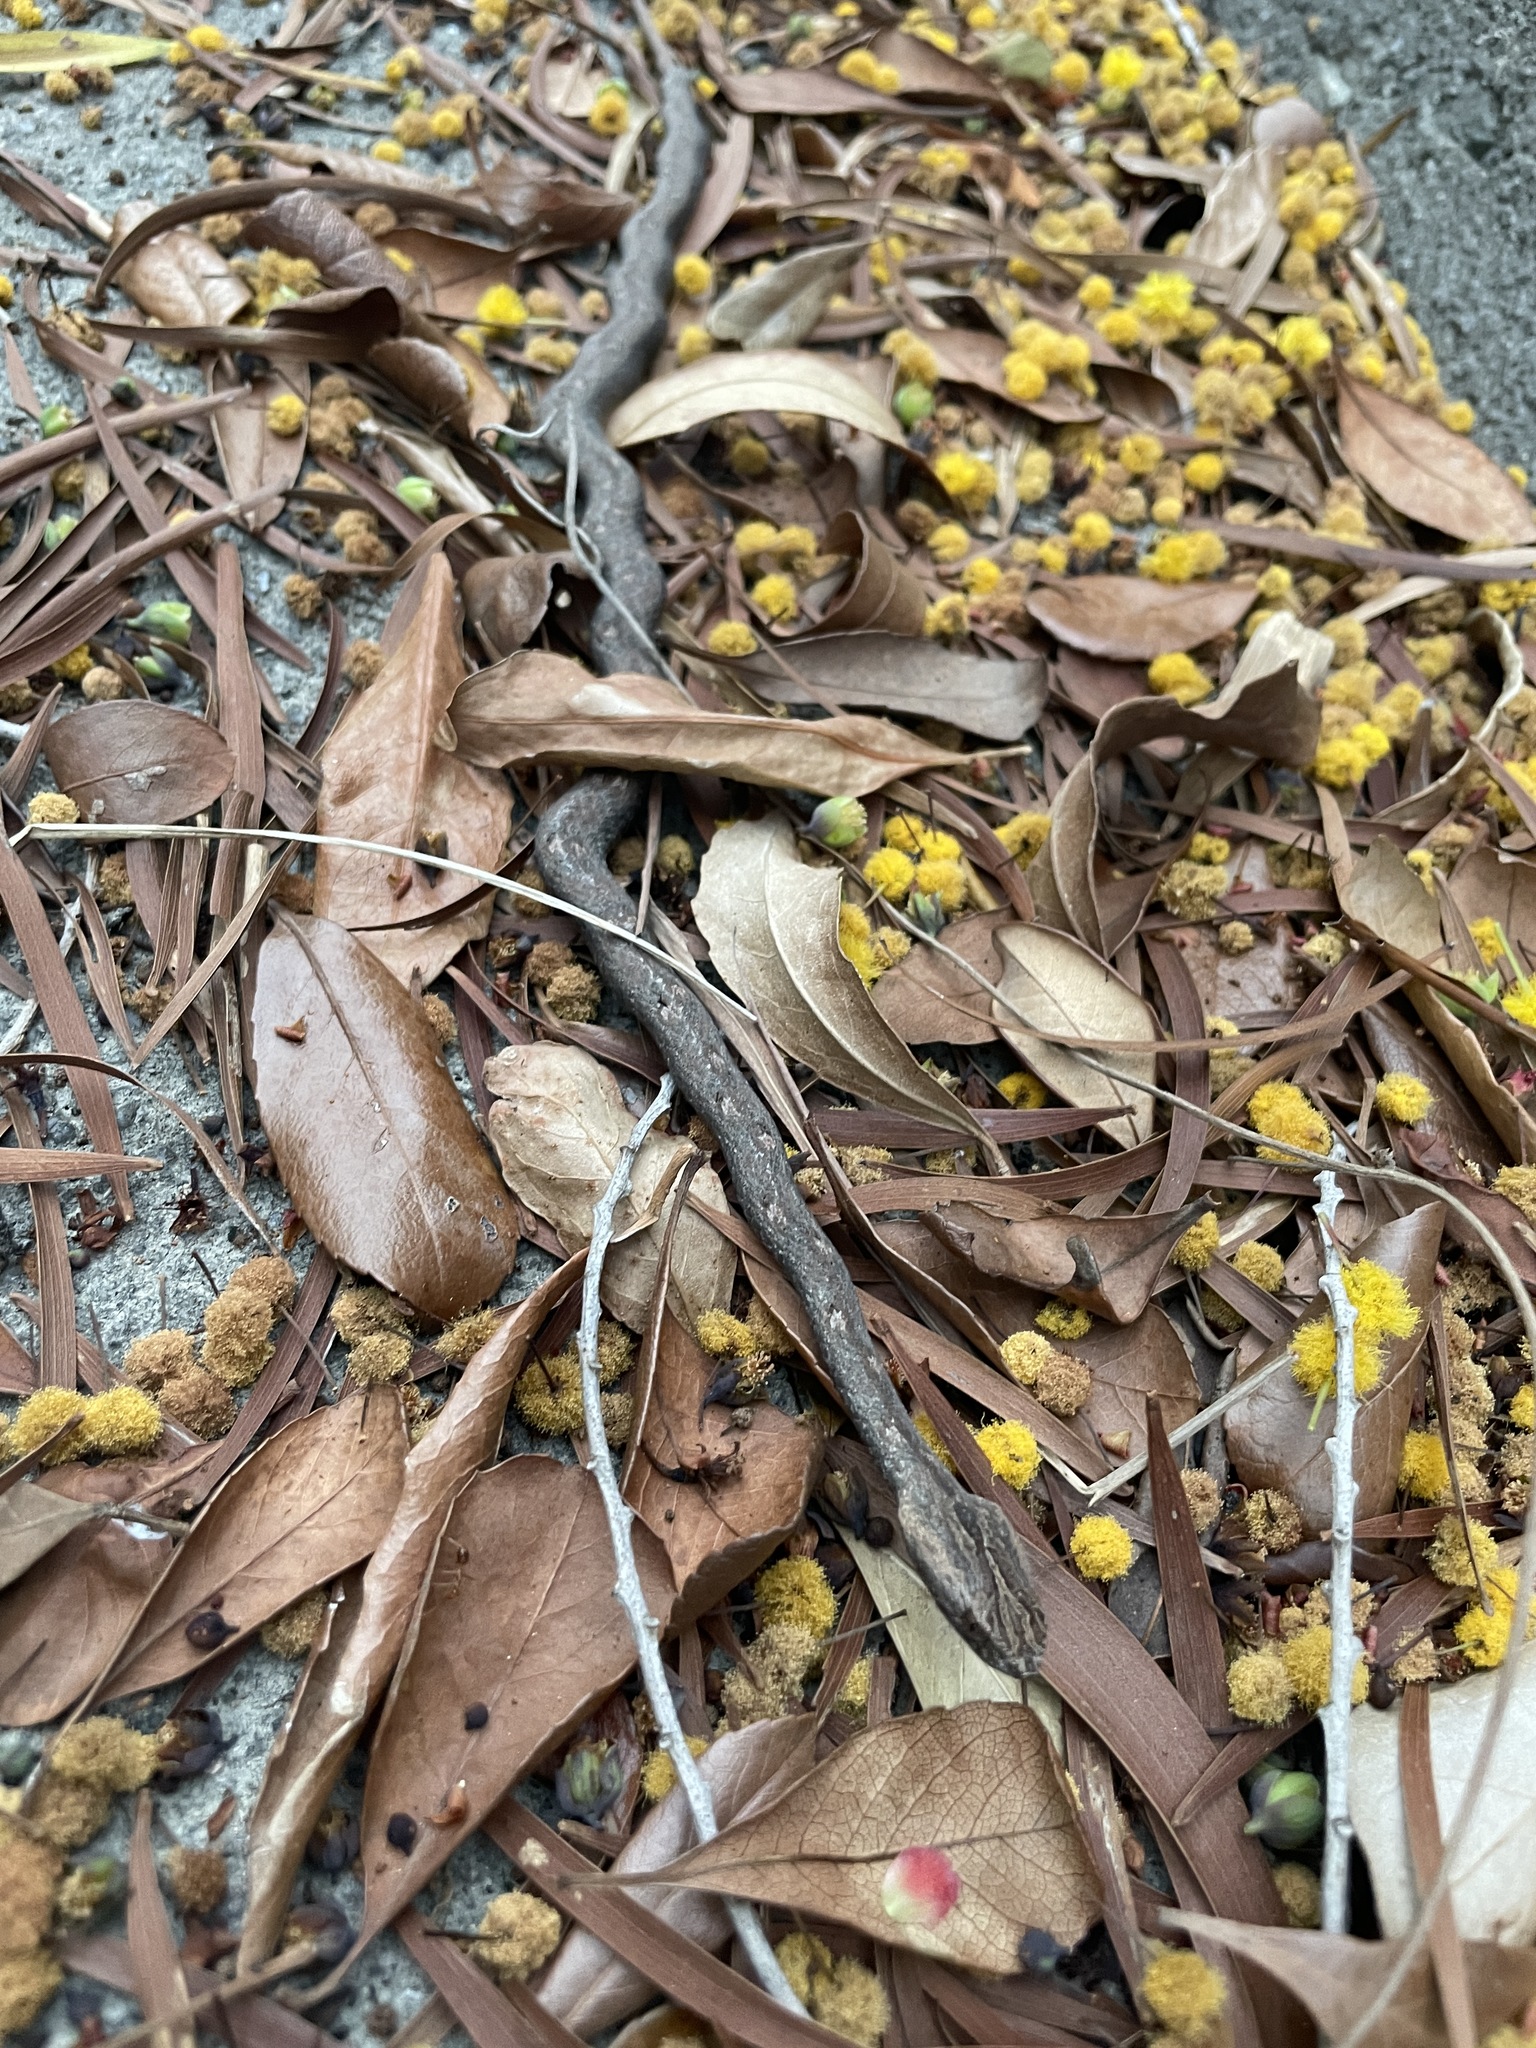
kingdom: Animalia
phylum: Chordata
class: Squamata
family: Pseudaspididae
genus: Psammodynastes
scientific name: Psammodynastes pulverulentus
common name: Common mock viper
